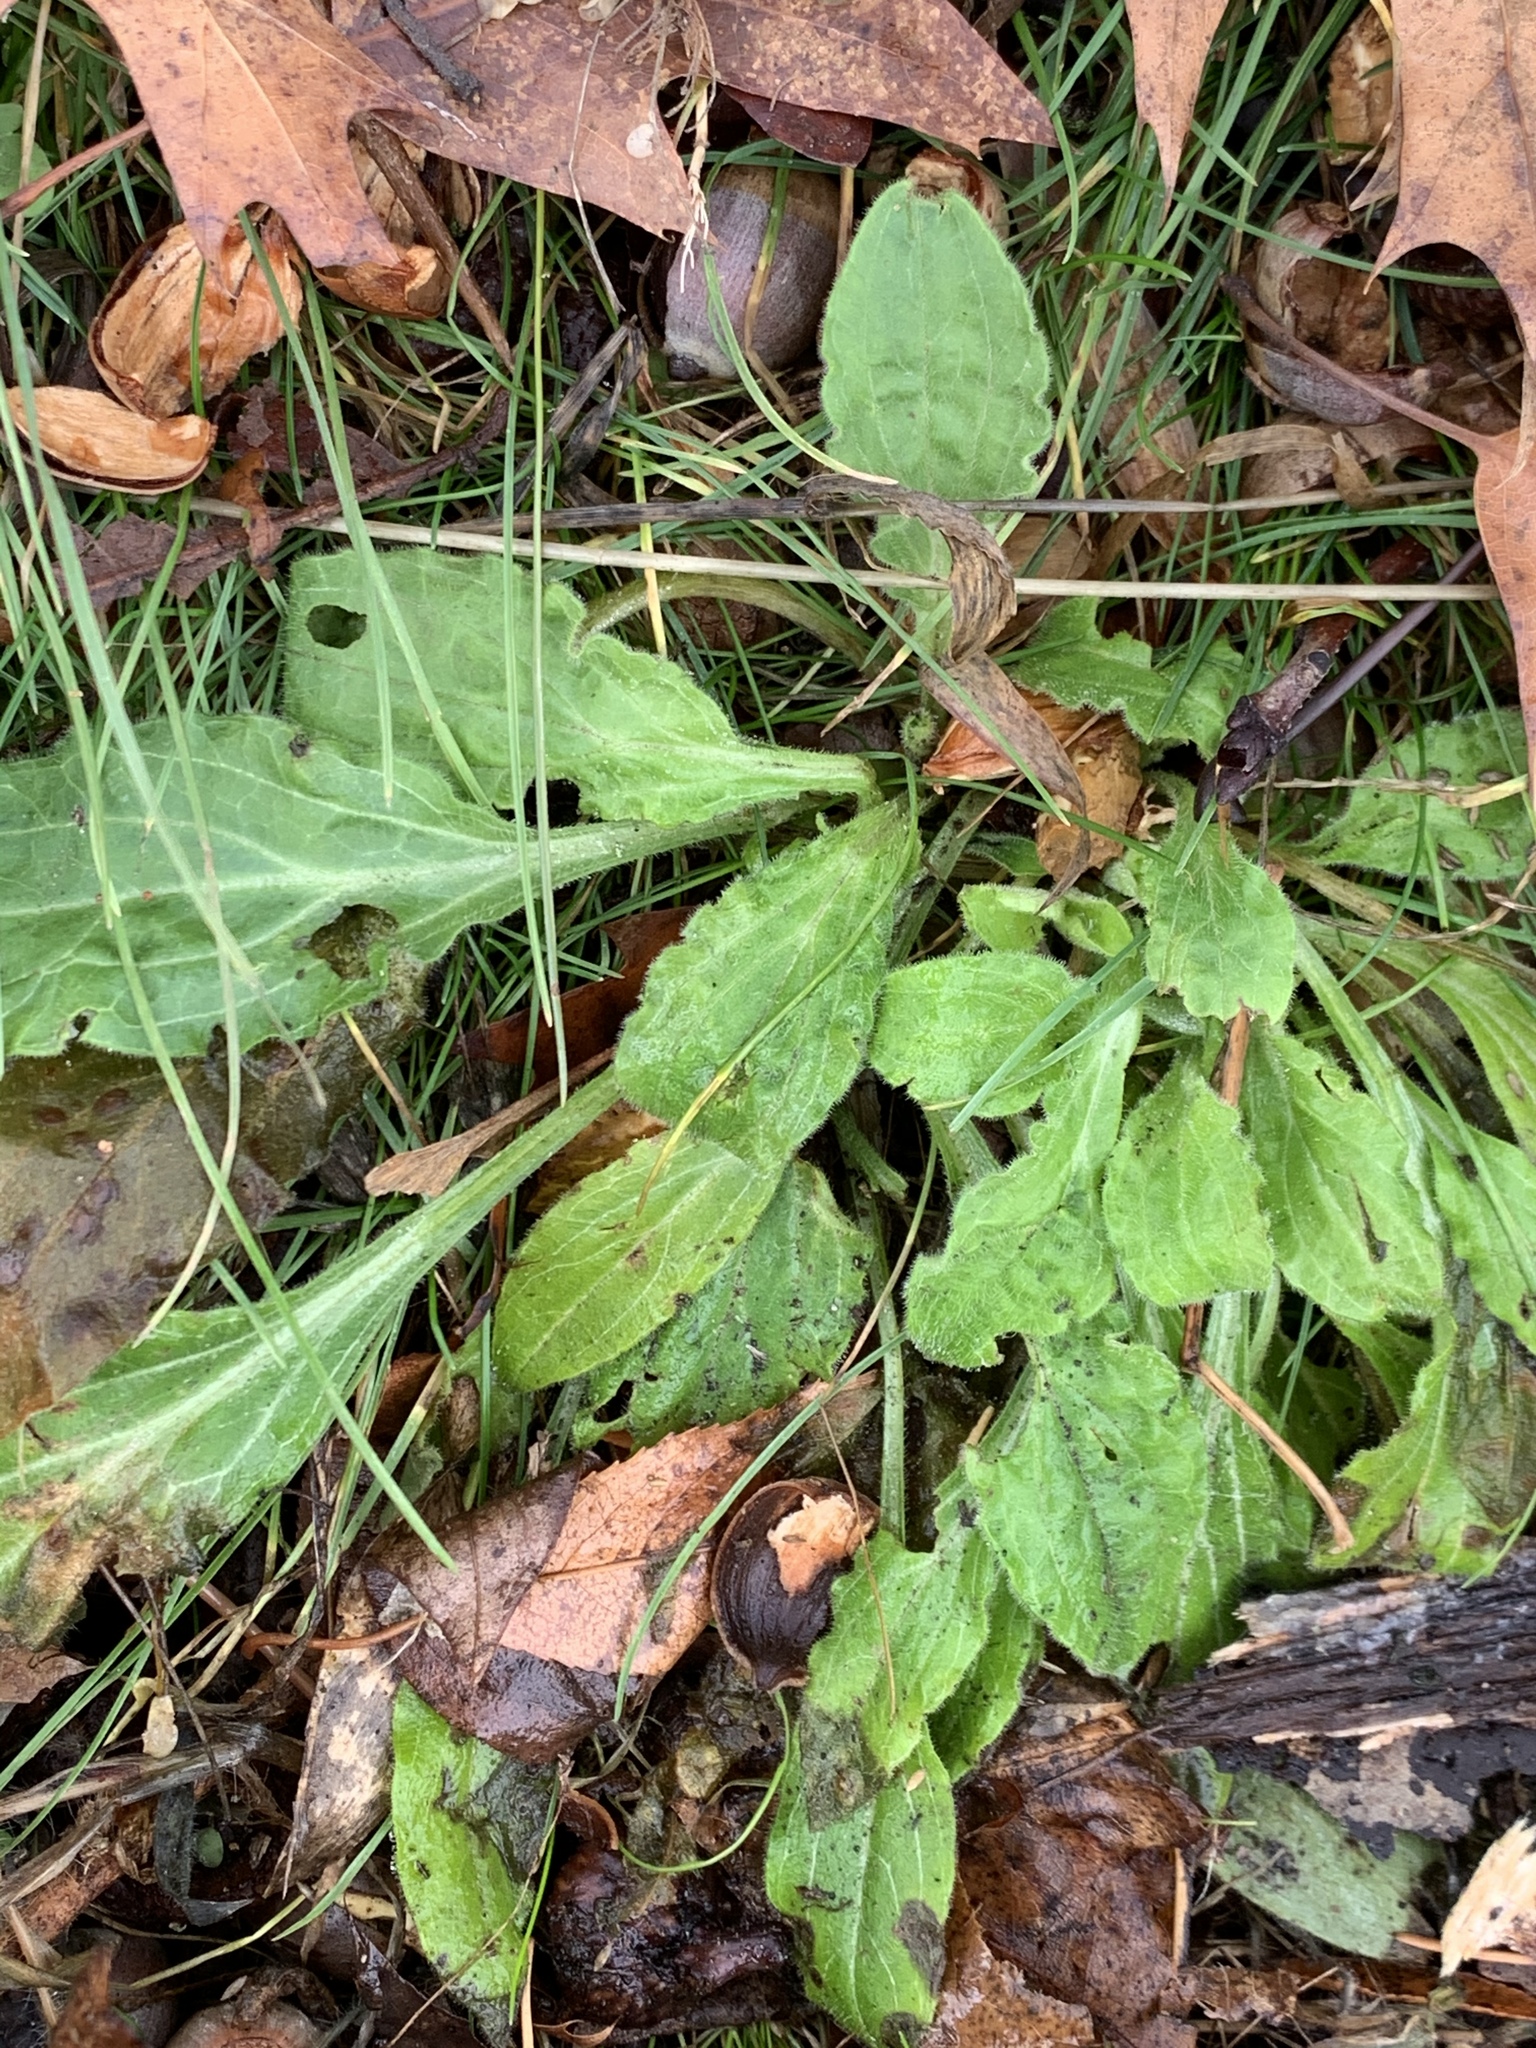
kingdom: Plantae
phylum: Tracheophyta
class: Magnoliopsida
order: Asterales
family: Asteraceae
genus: Erigeron
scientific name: Erigeron canadensis
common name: Canadian fleabane
